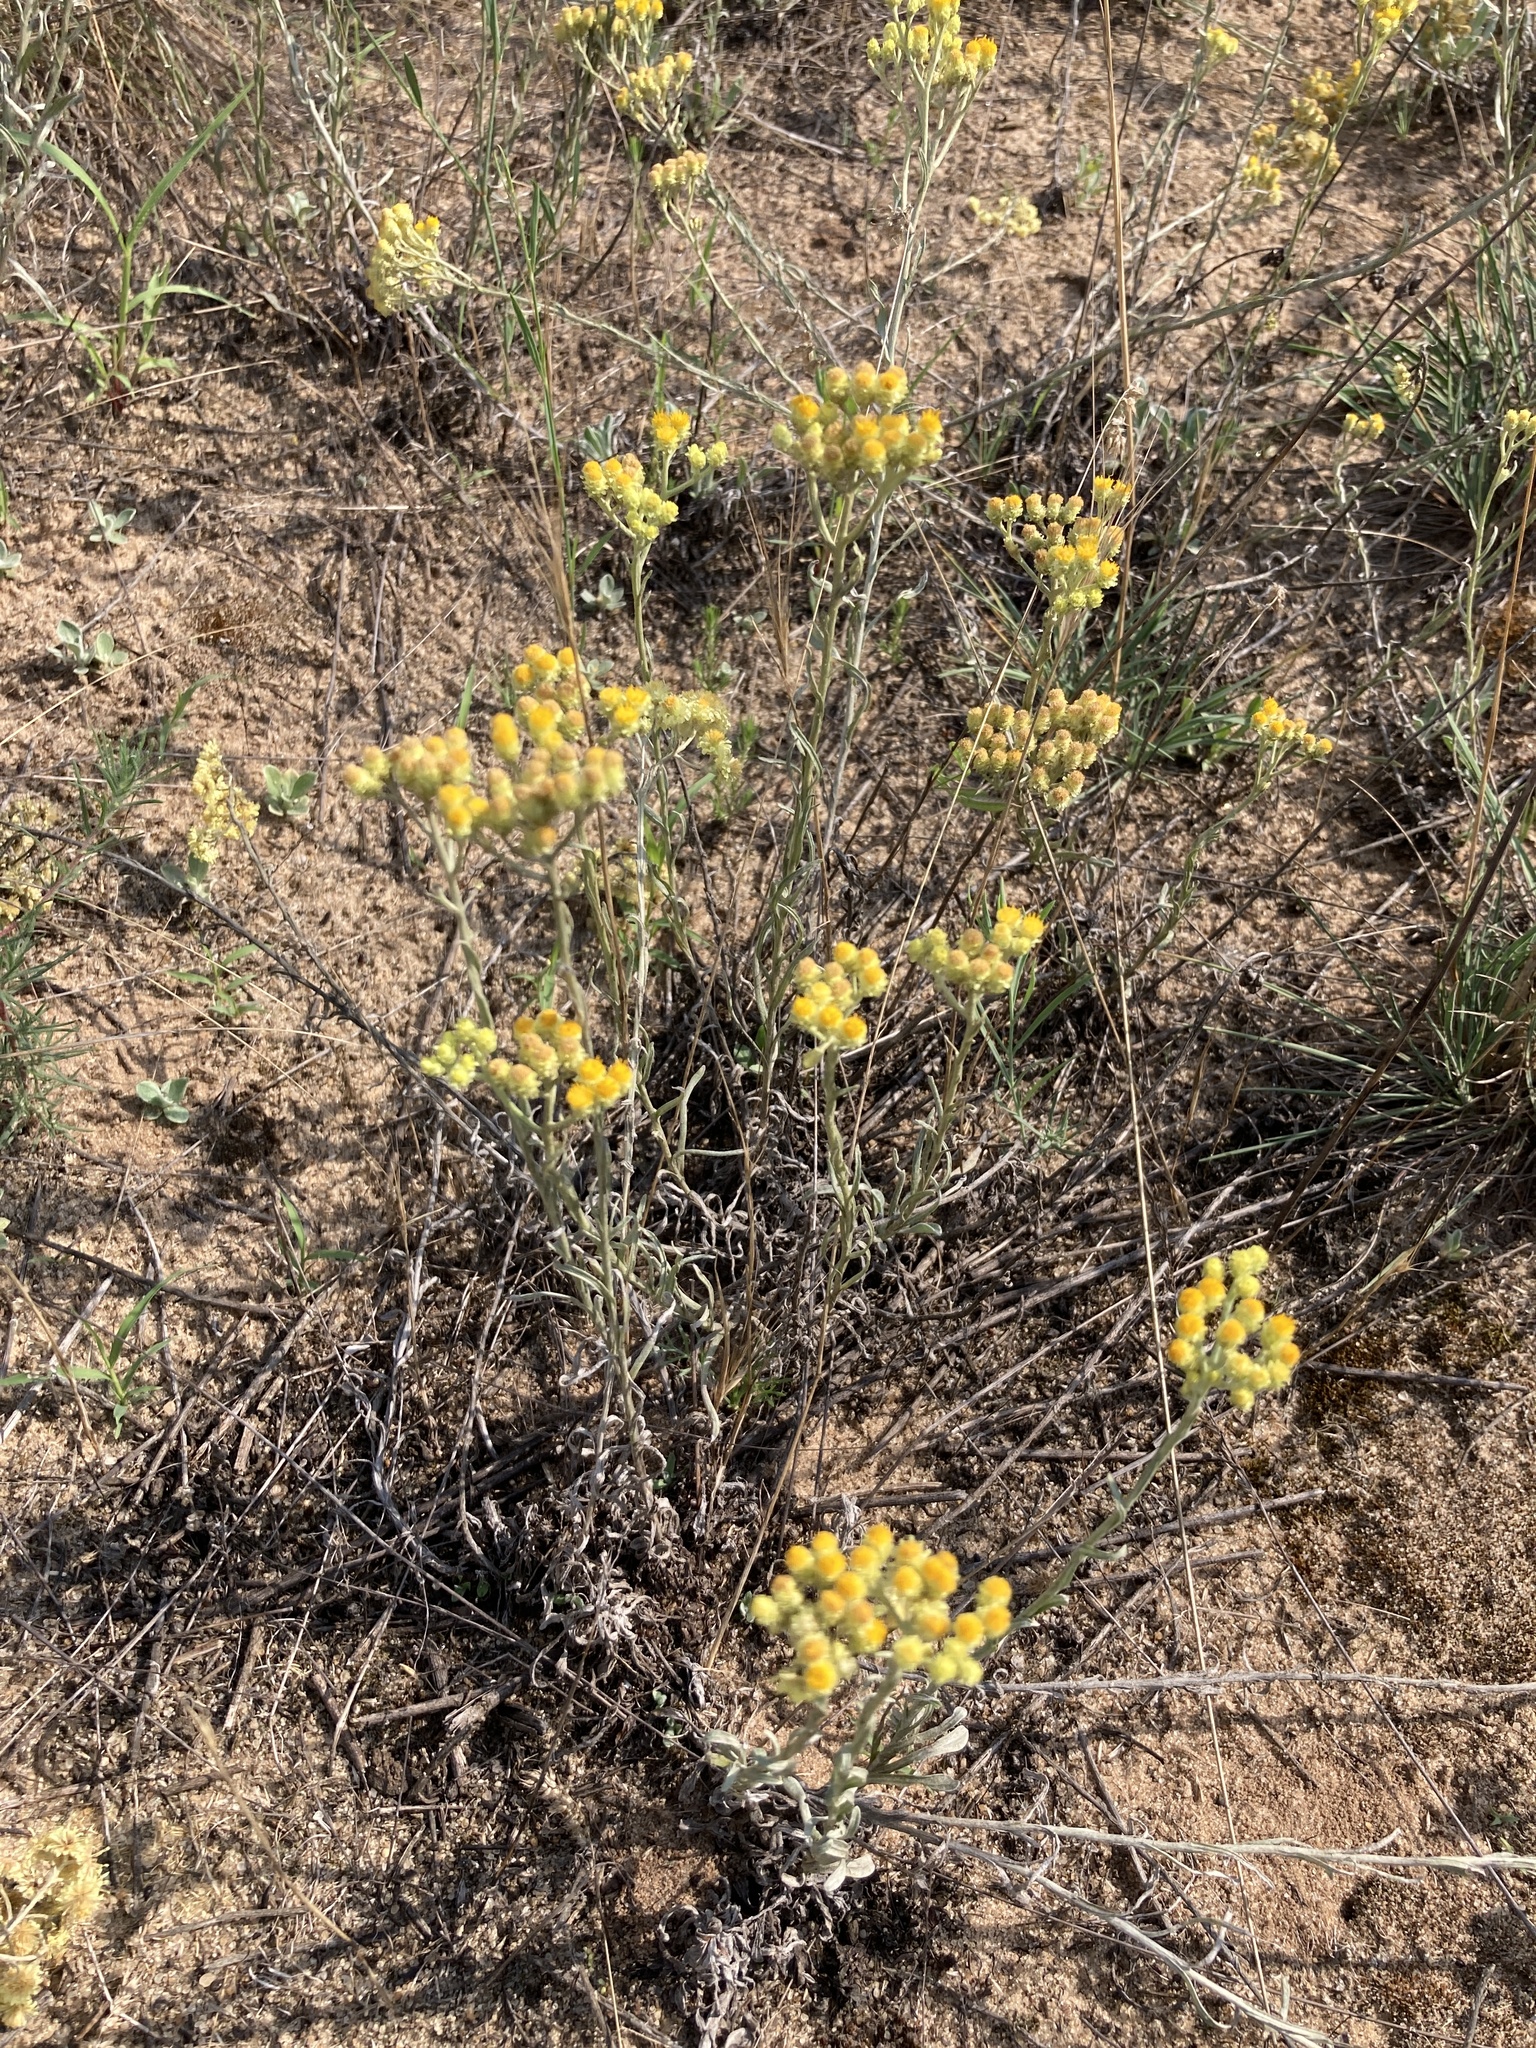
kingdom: Plantae
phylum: Tracheophyta
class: Magnoliopsida
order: Asterales
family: Asteraceae
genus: Helichrysum
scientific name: Helichrysum arenarium
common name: Strawflower
